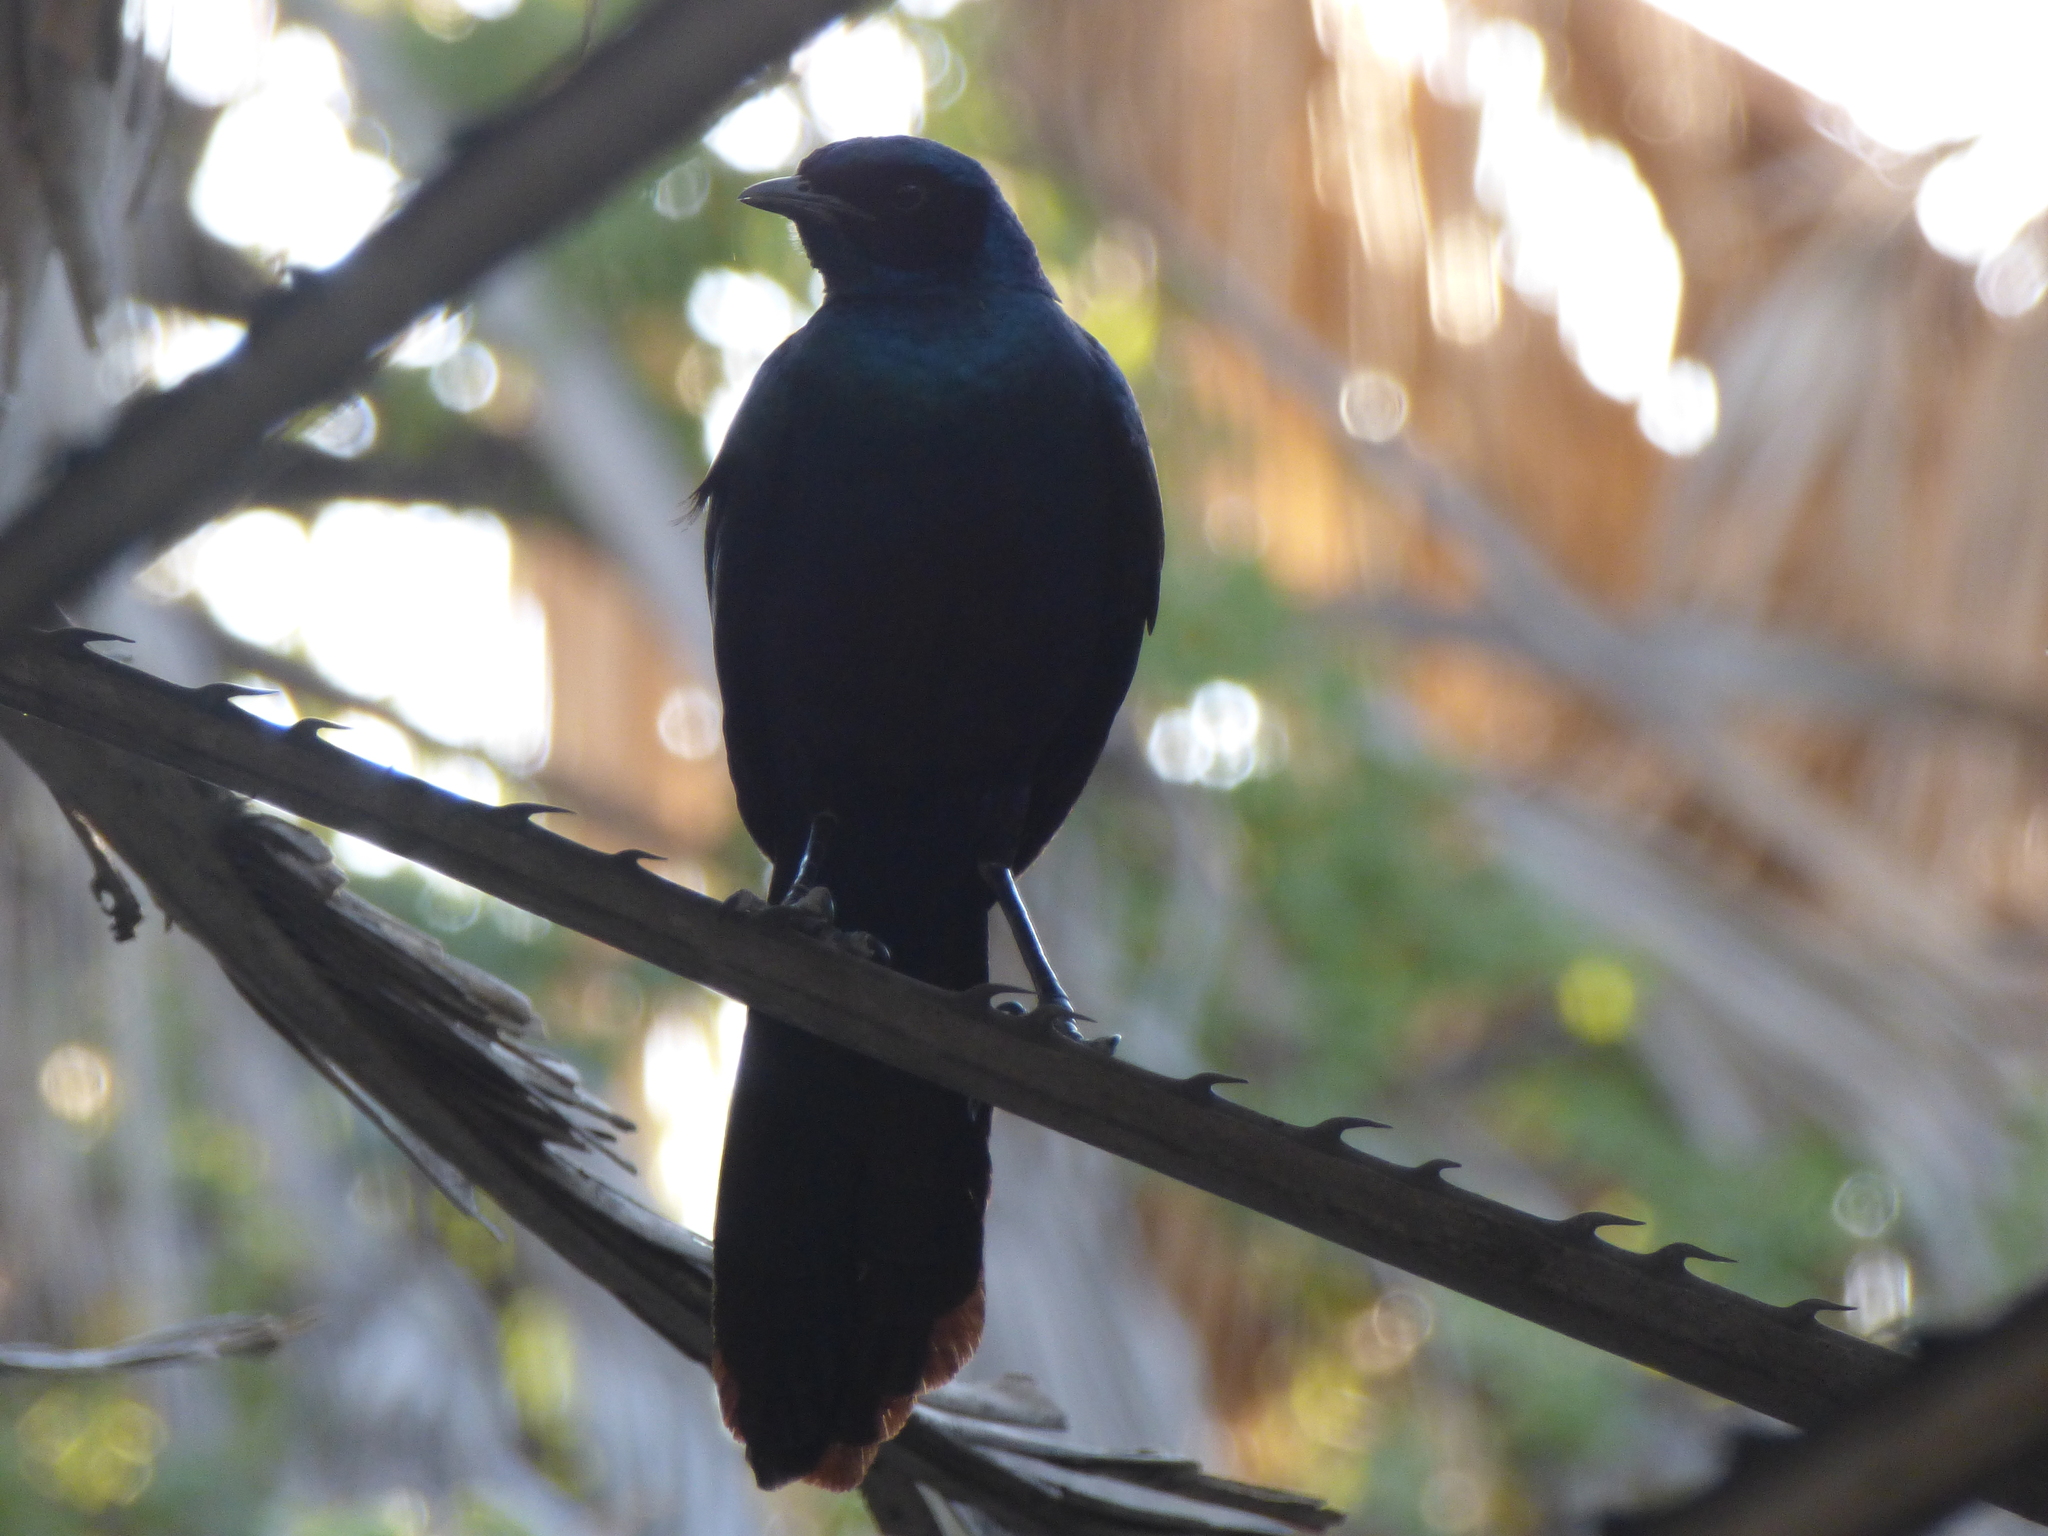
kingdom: Animalia
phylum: Chordata
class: Aves
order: Passeriformes
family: Sturnidae
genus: Lamprotornis
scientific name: Lamprotornis australis
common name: Burchell's starling
